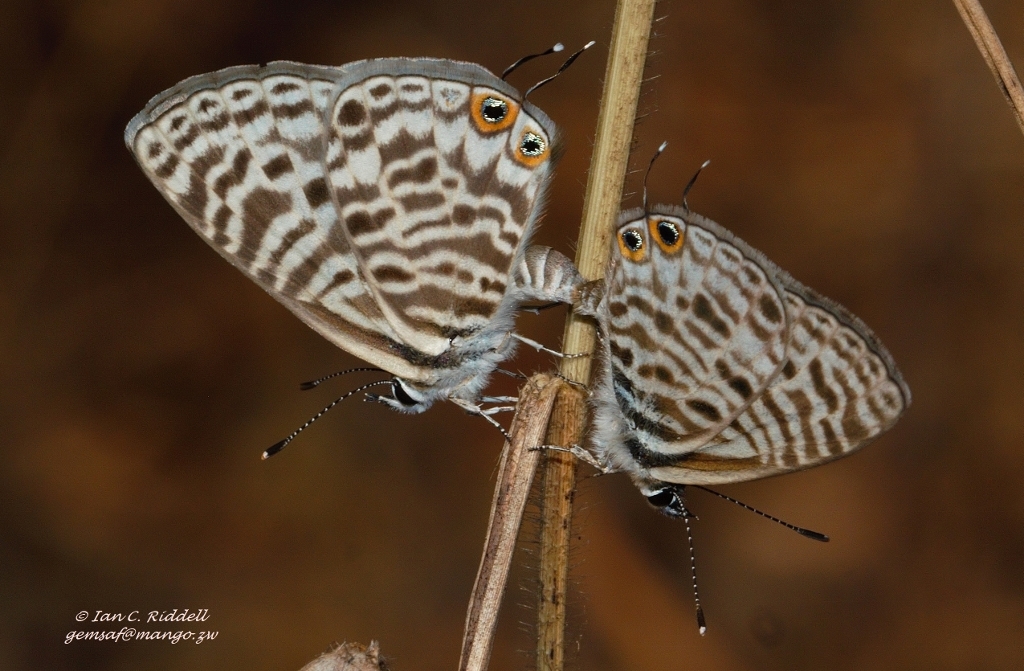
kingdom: Animalia
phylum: Arthropoda
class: Insecta
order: Lepidoptera
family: Lycaenidae
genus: Leptotes
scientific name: Leptotes
